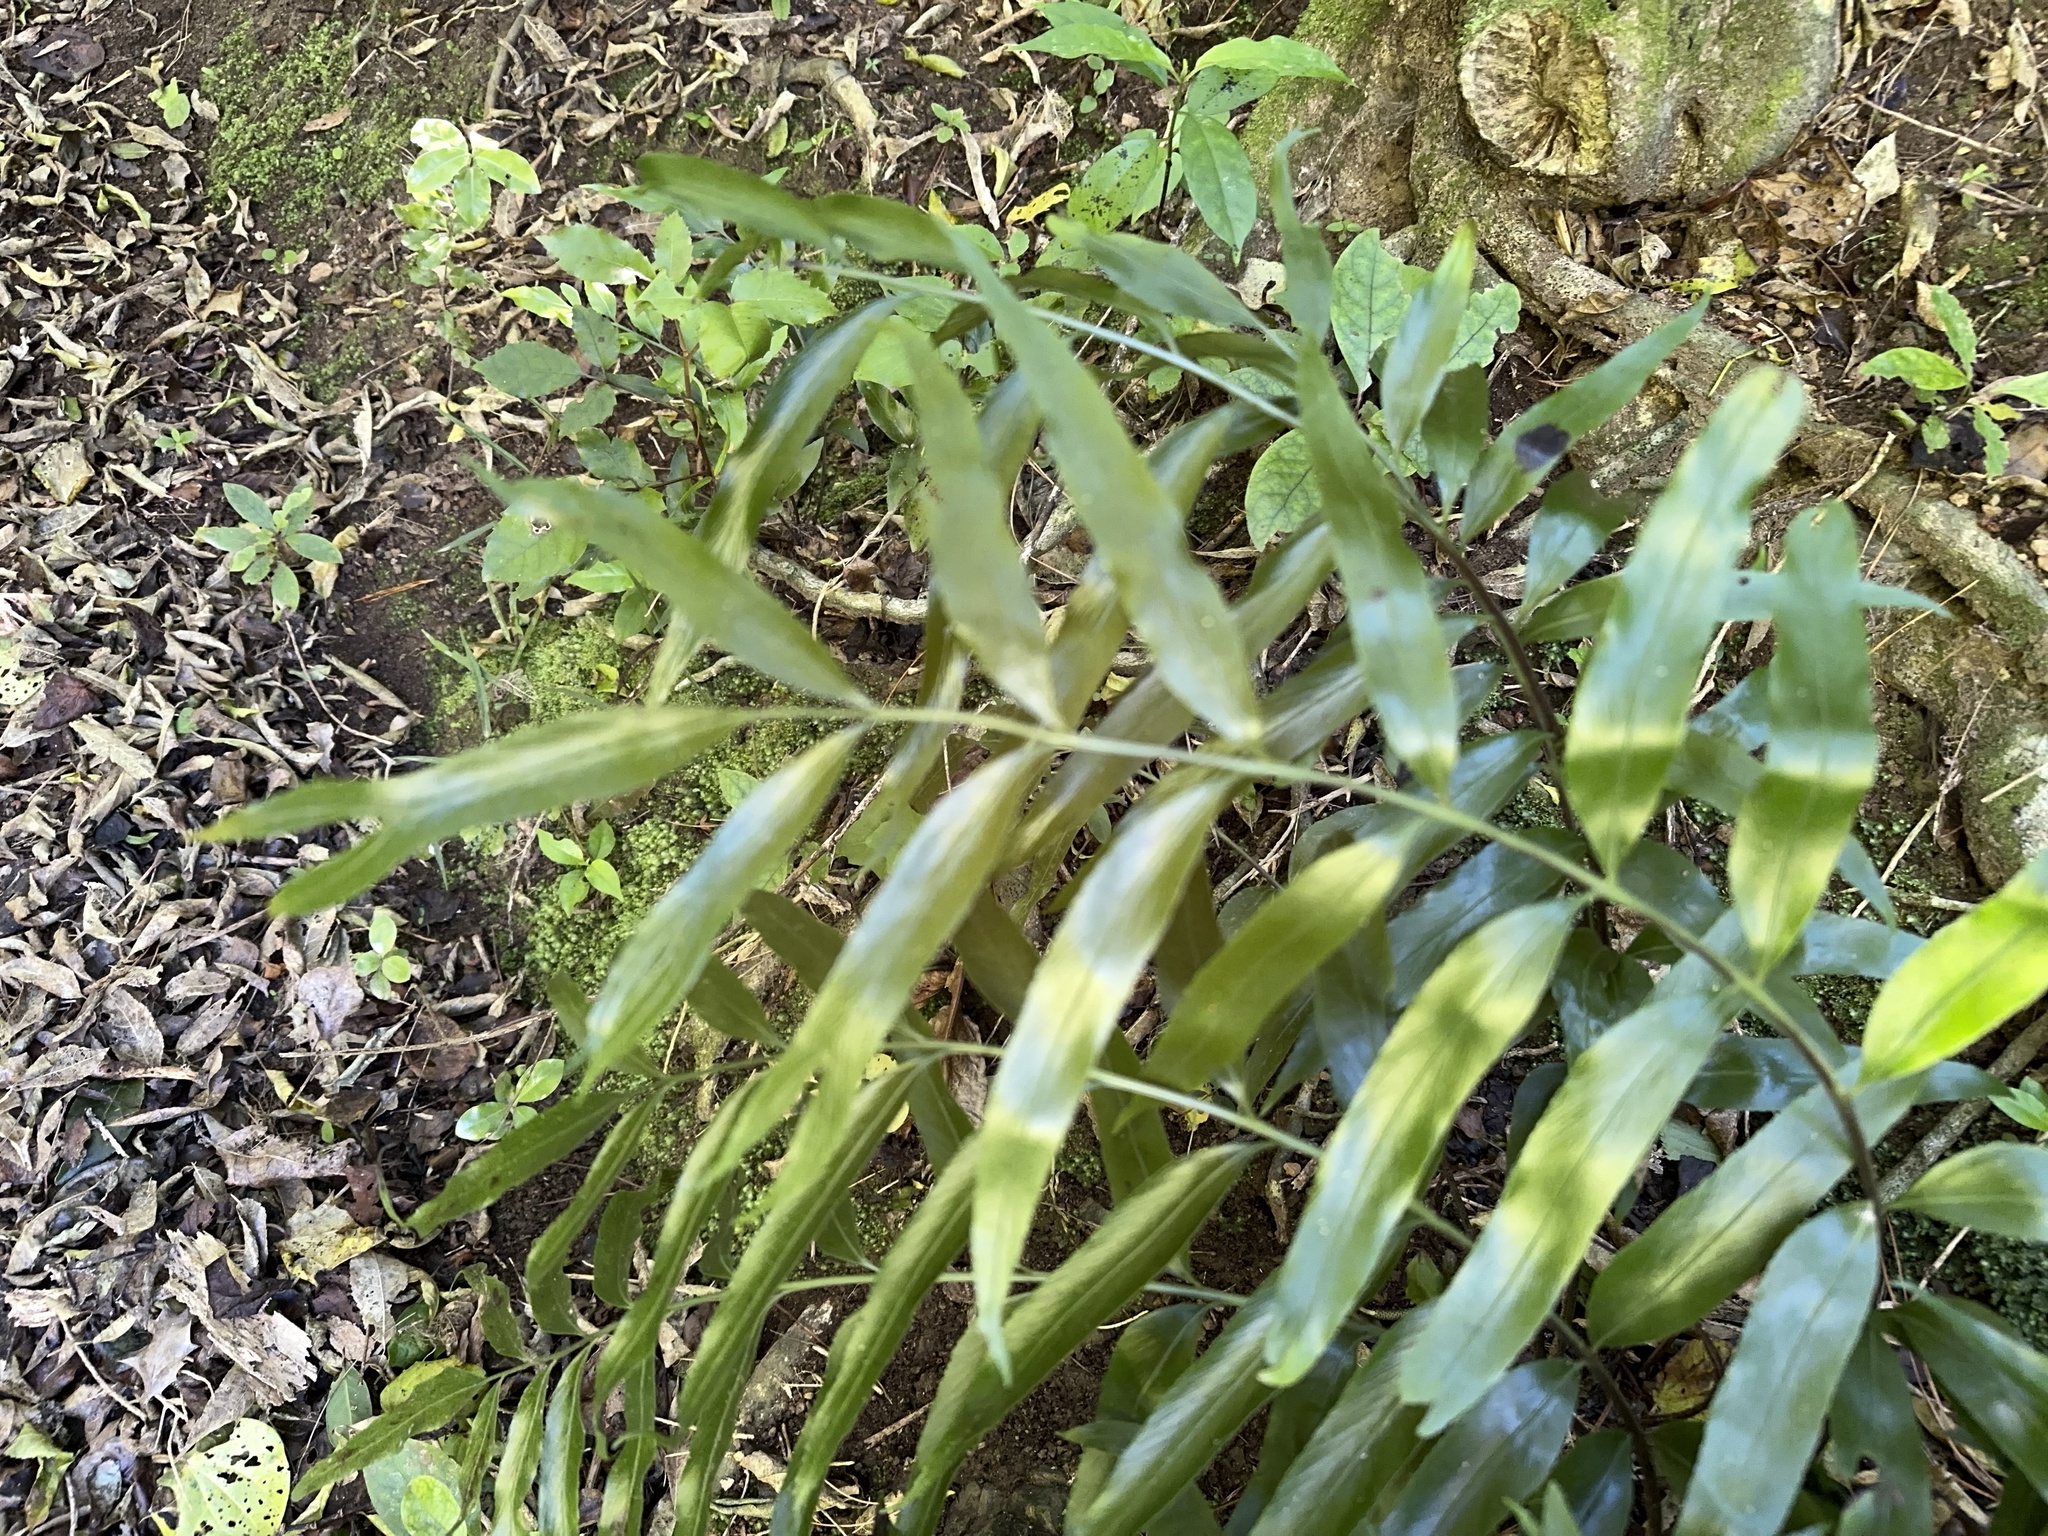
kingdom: Plantae
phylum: Tracheophyta
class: Polypodiopsida
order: Polypodiales
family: Aspleniaceae
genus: Asplenium
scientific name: Asplenium oblongifolium
